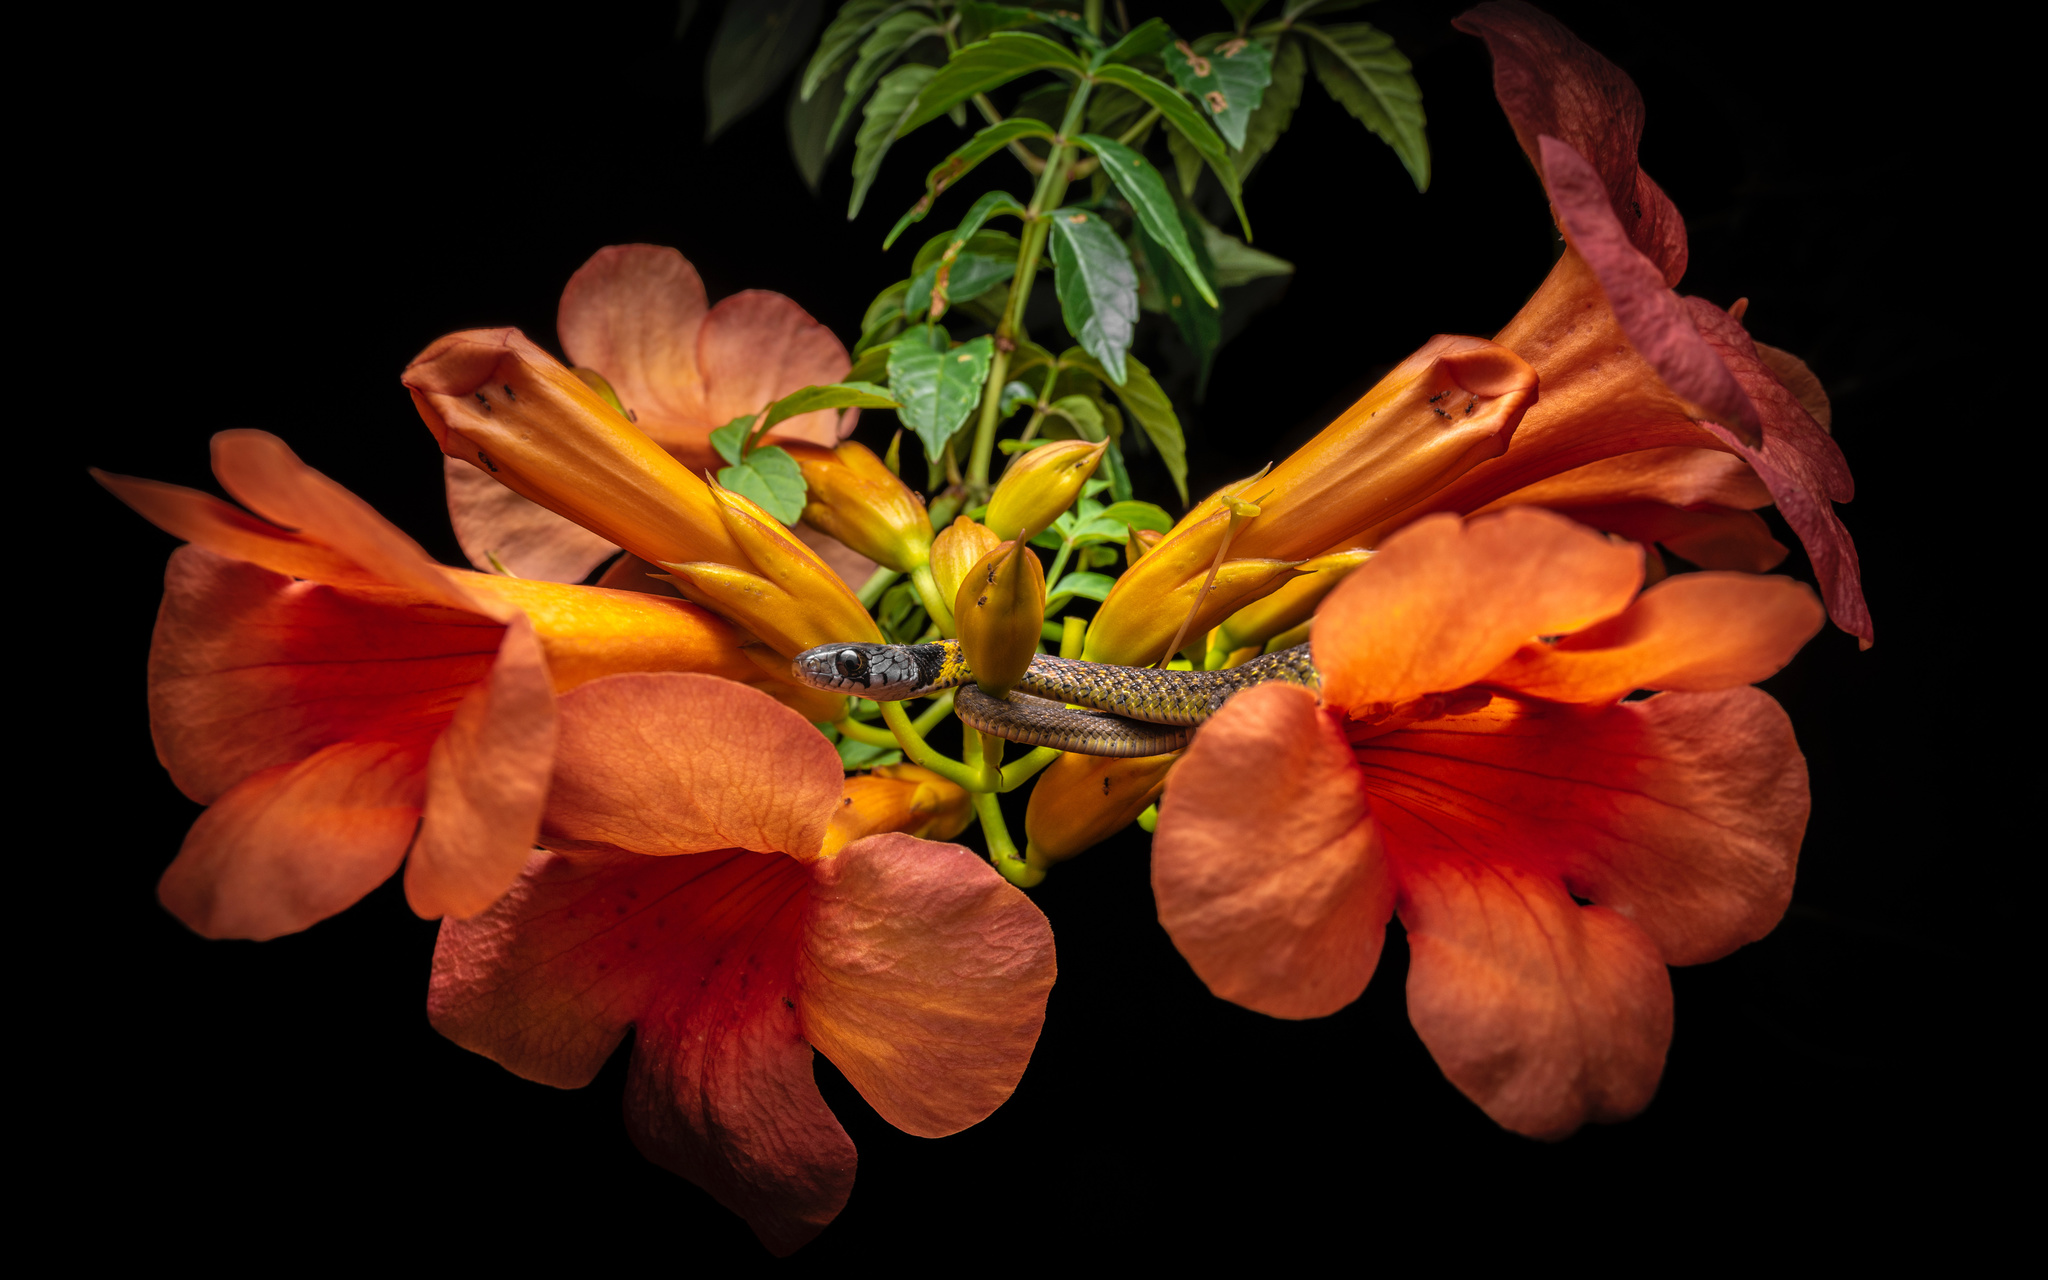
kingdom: Animalia
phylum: Chordata
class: Squamata
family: Colubridae
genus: Rhabdophis
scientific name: Rhabdophis helleri
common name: Heller’s red-necked keelback
